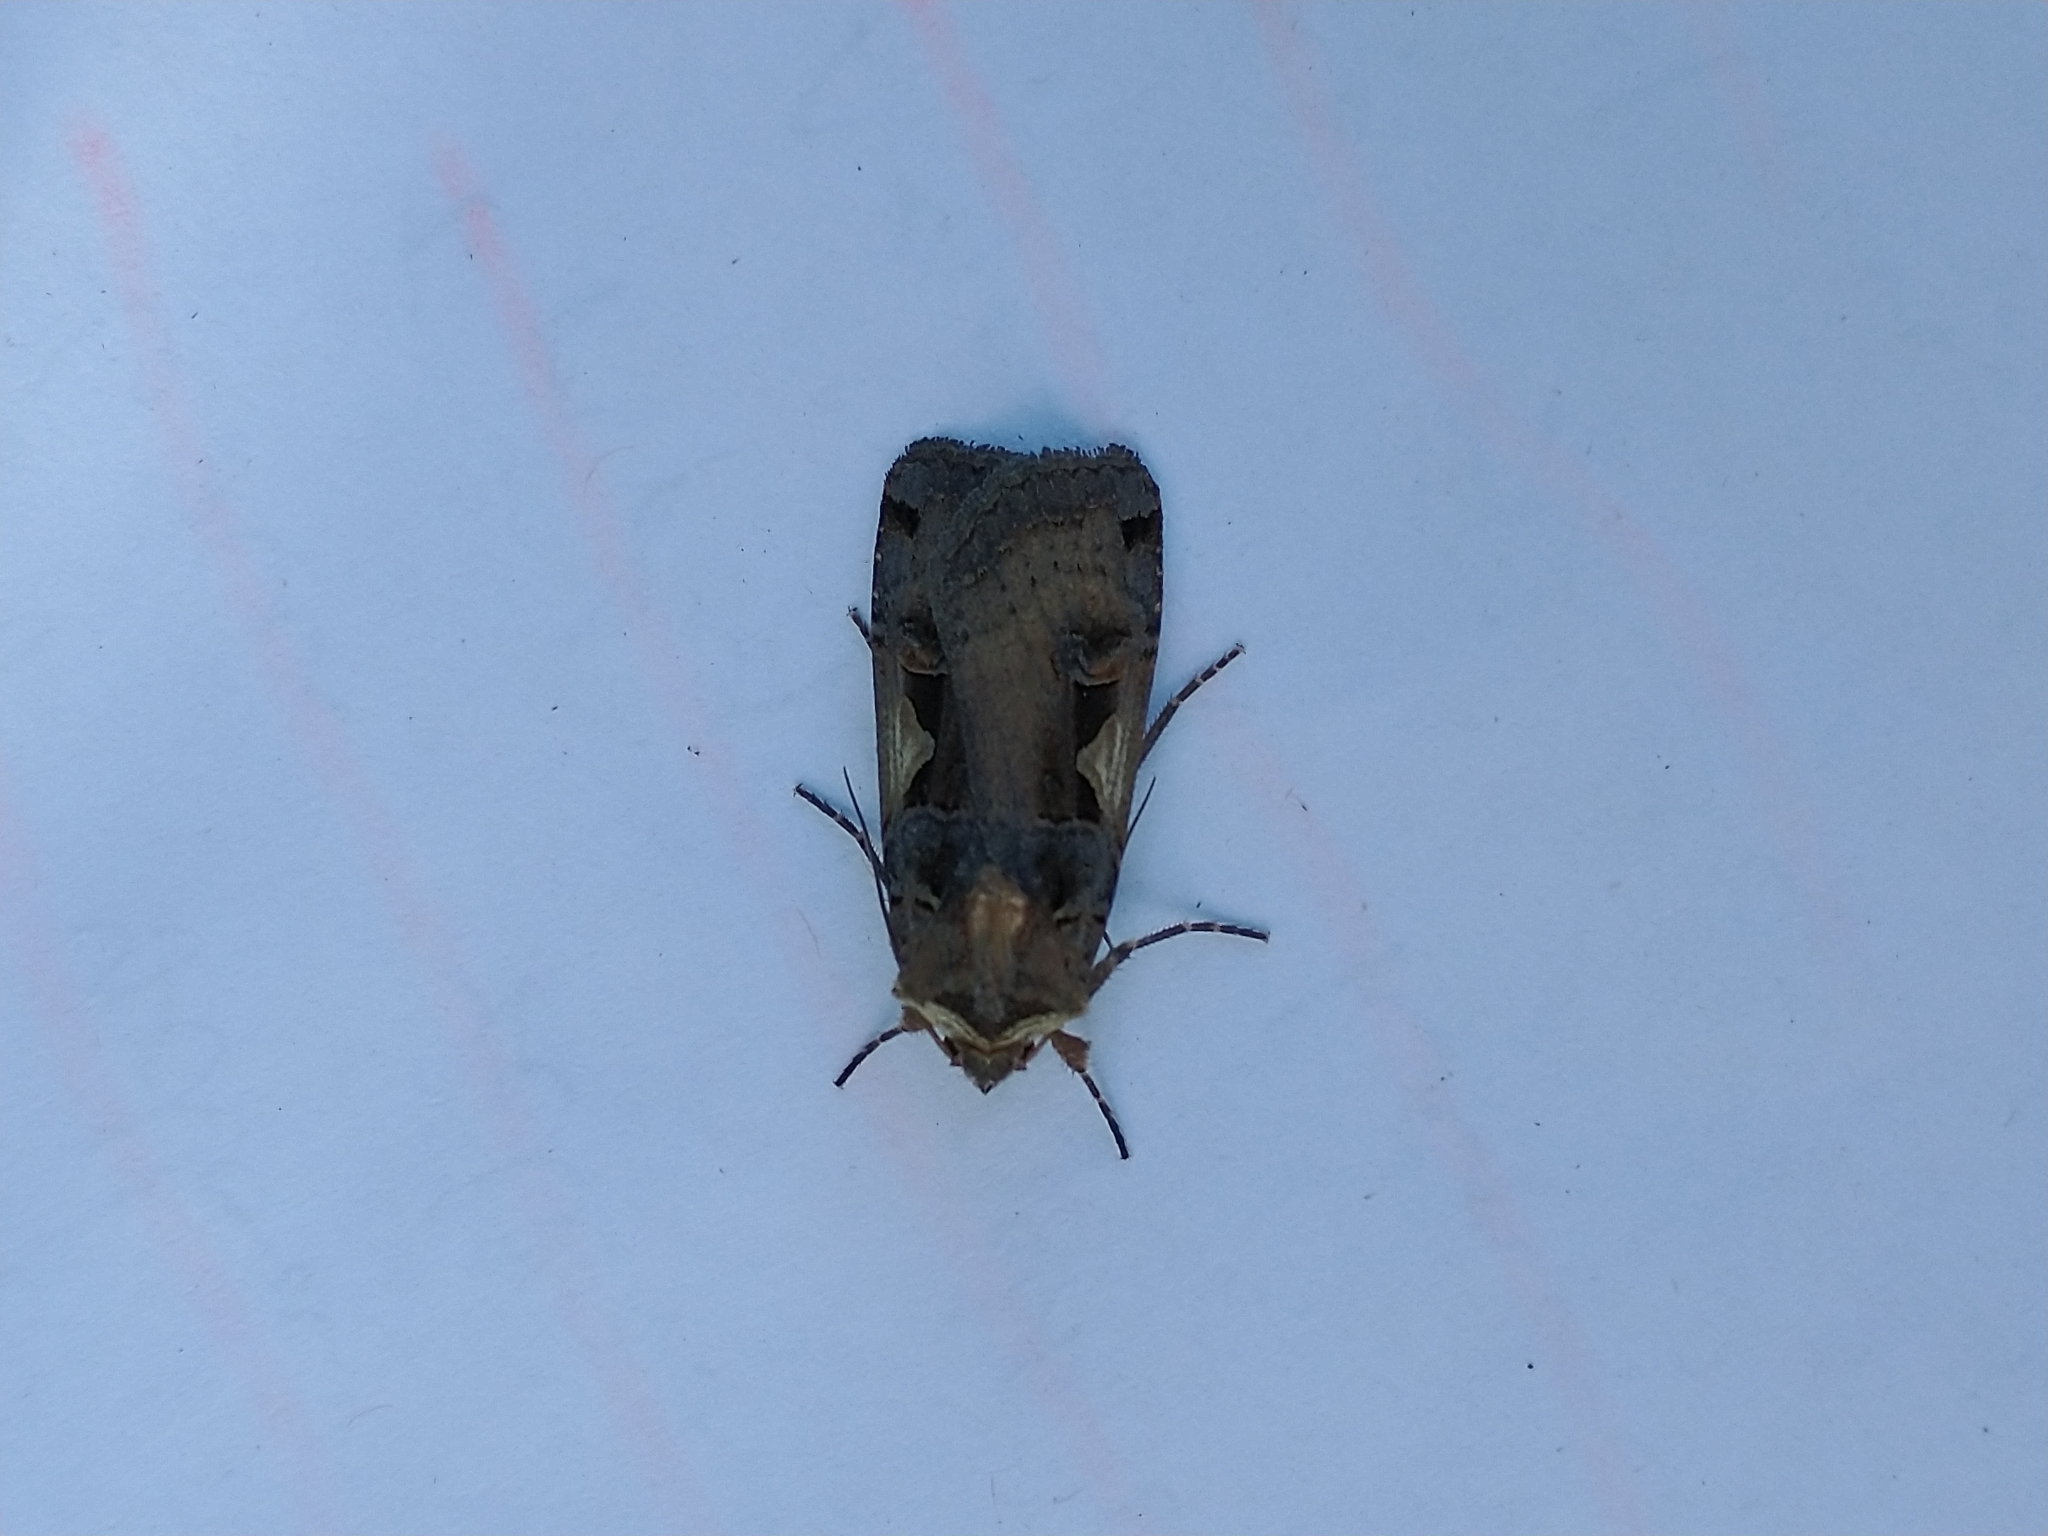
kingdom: Animalia
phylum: Arthropoda
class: Insecta
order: Lepidoptera
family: Noctuidae
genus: Xestia
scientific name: Xestia c-nigrum
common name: Setaceous hebrew character
